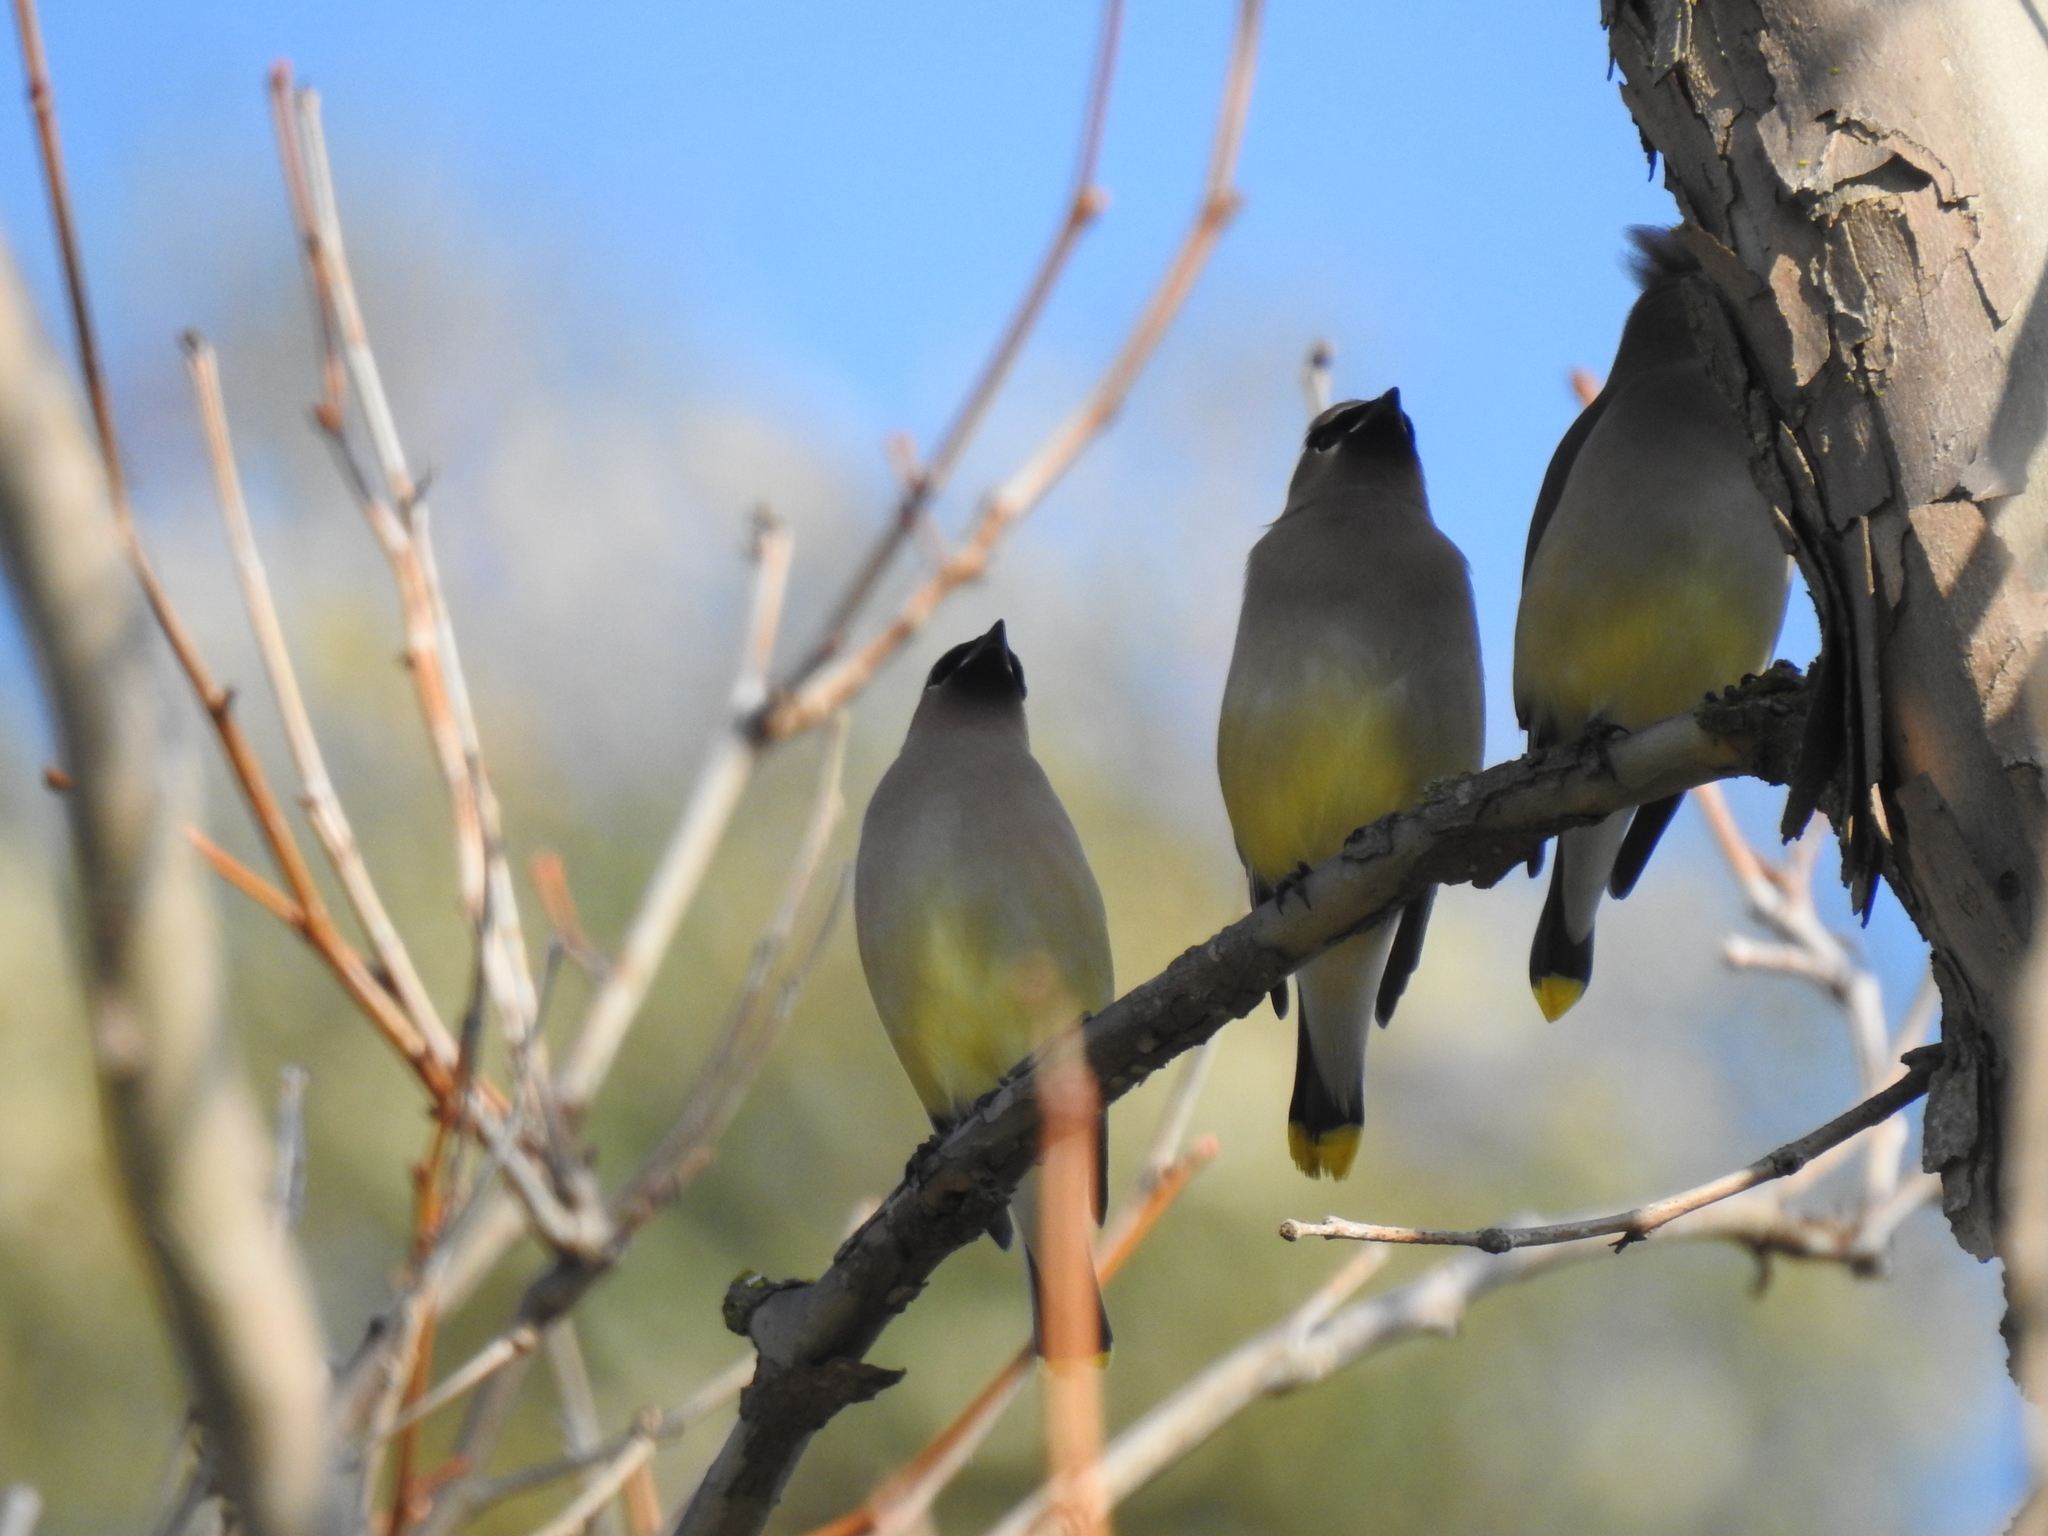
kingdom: Animalia
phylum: Chordata
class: Aves
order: Passeriformes
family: Bombycillidae
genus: Bombycilla
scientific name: Bombycilla cedrorum
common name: Cedar waxwing
